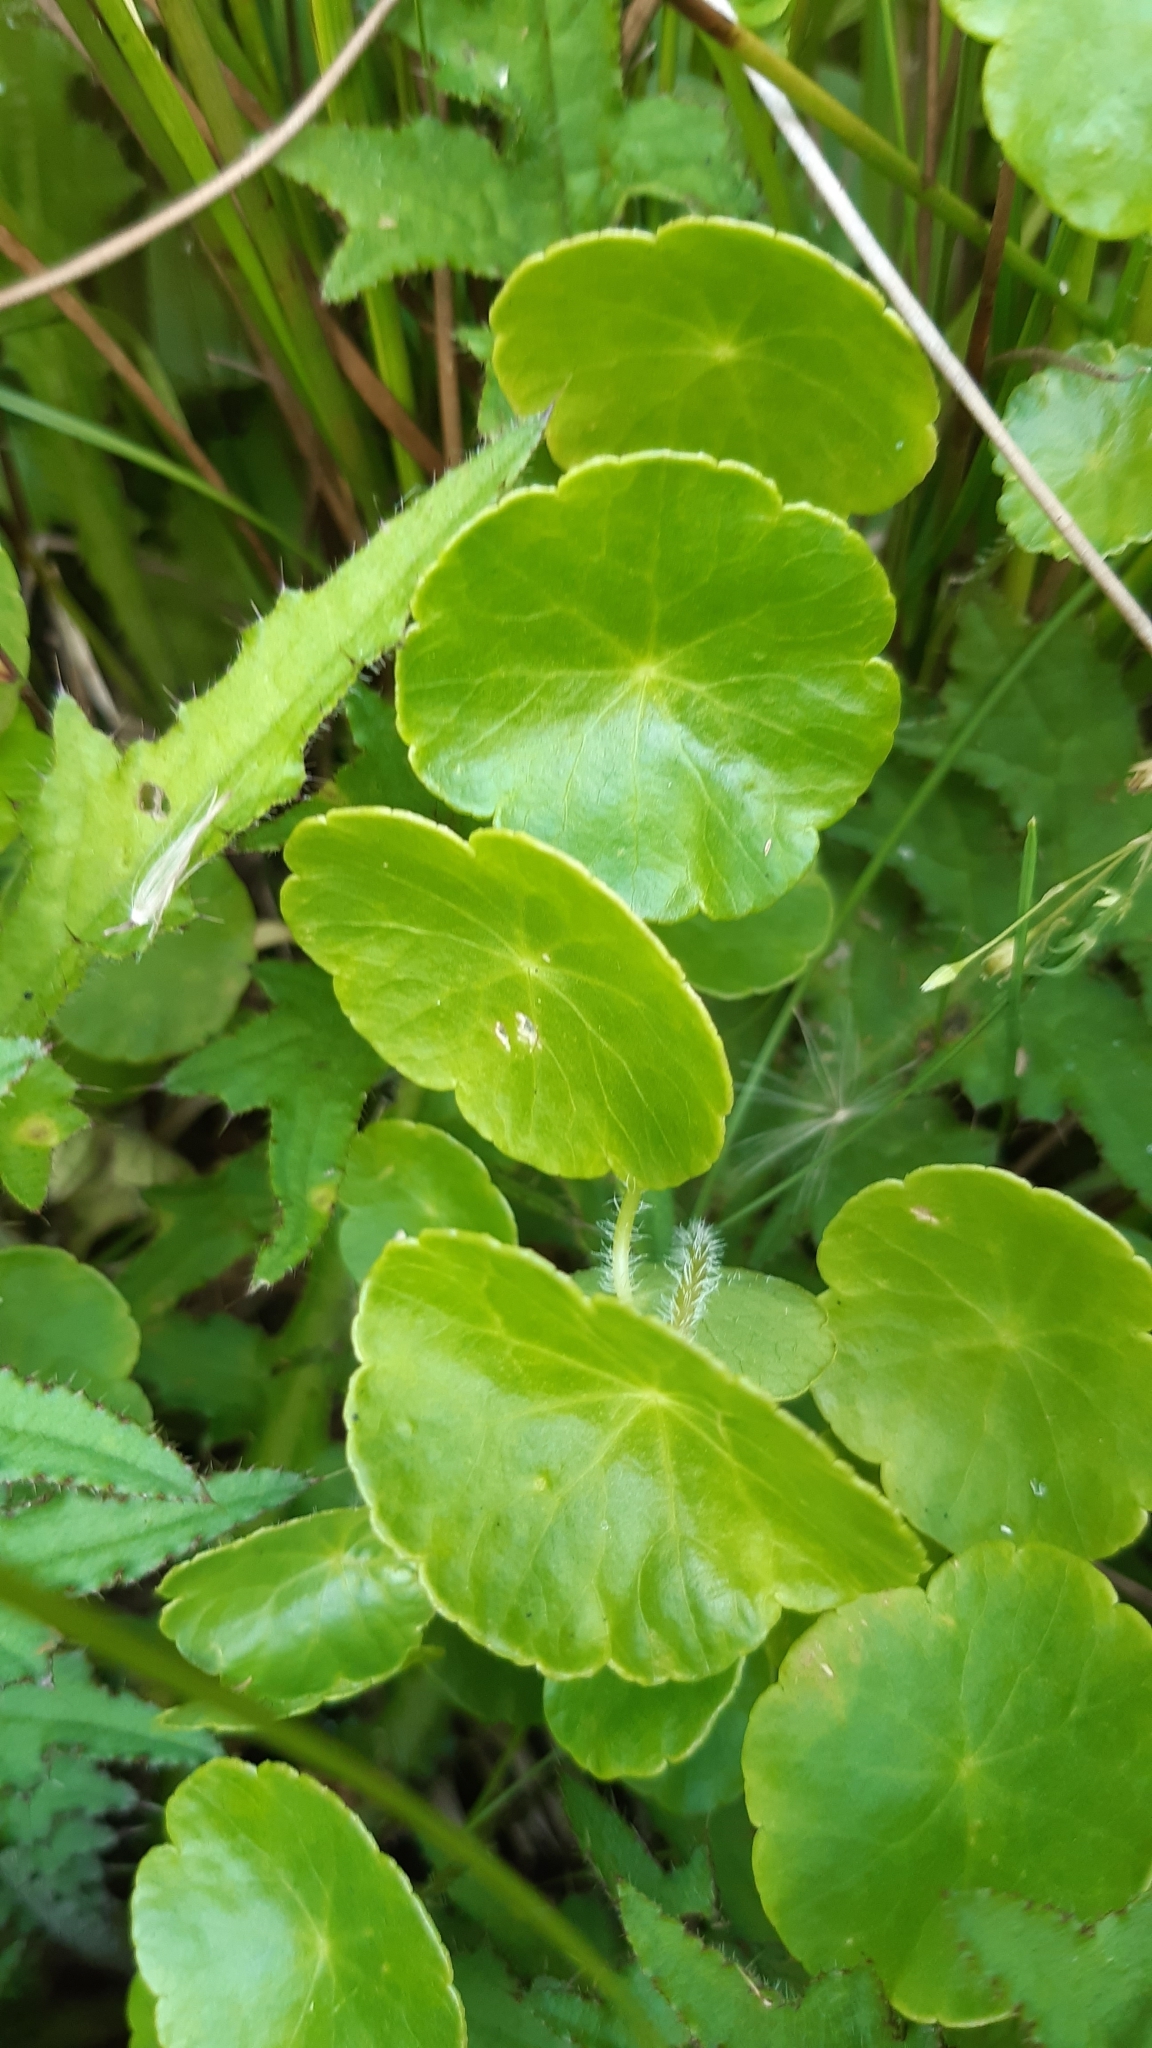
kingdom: Plantae
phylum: Tracheophyta
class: Magnoliopsida
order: Apiales
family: Araliaceae
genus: Hydrocotyle
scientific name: Hydrocotyle vulgaris
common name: Marsh pennywort
